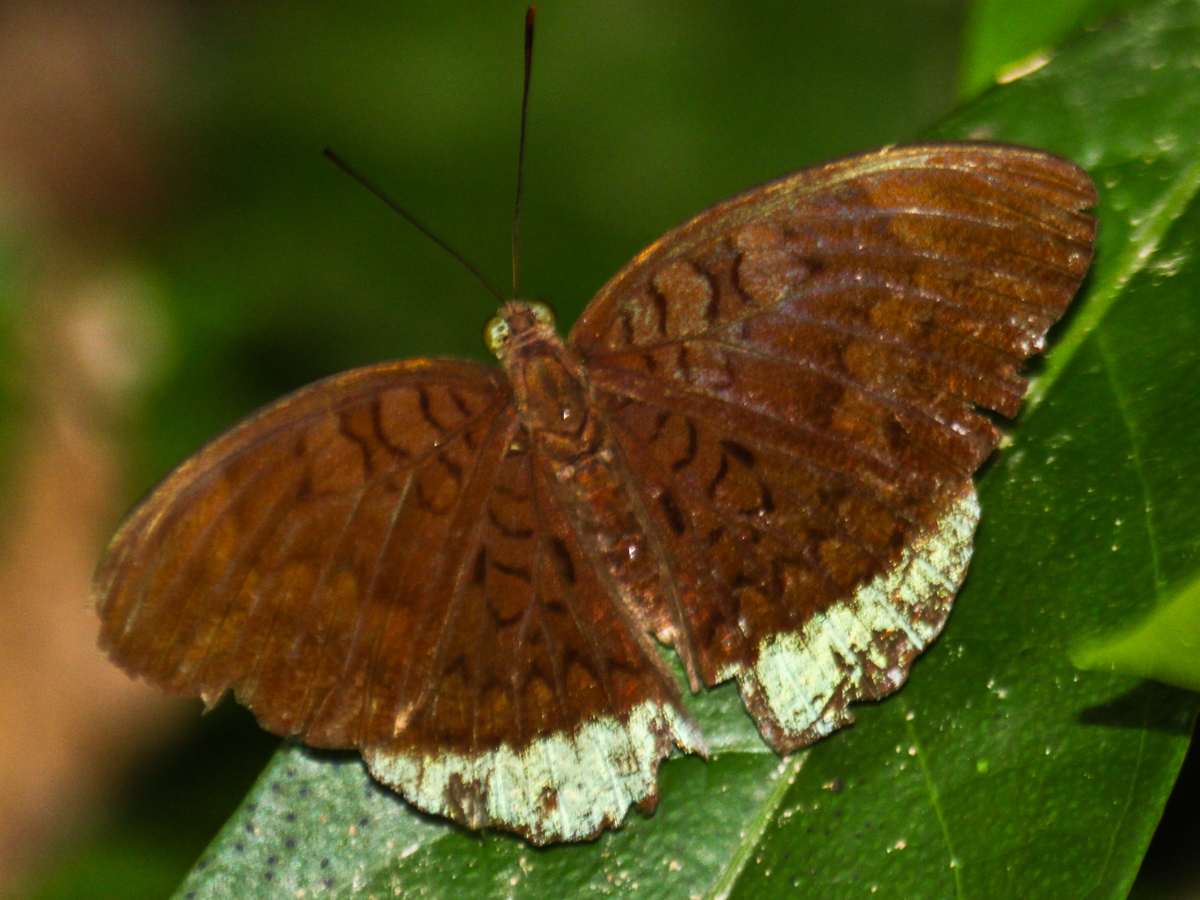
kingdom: Animalia
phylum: Arthropoda
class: Insecta
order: Lepidoptera
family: Nymphalidae
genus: Tanaecia
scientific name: Tanaecia julii
